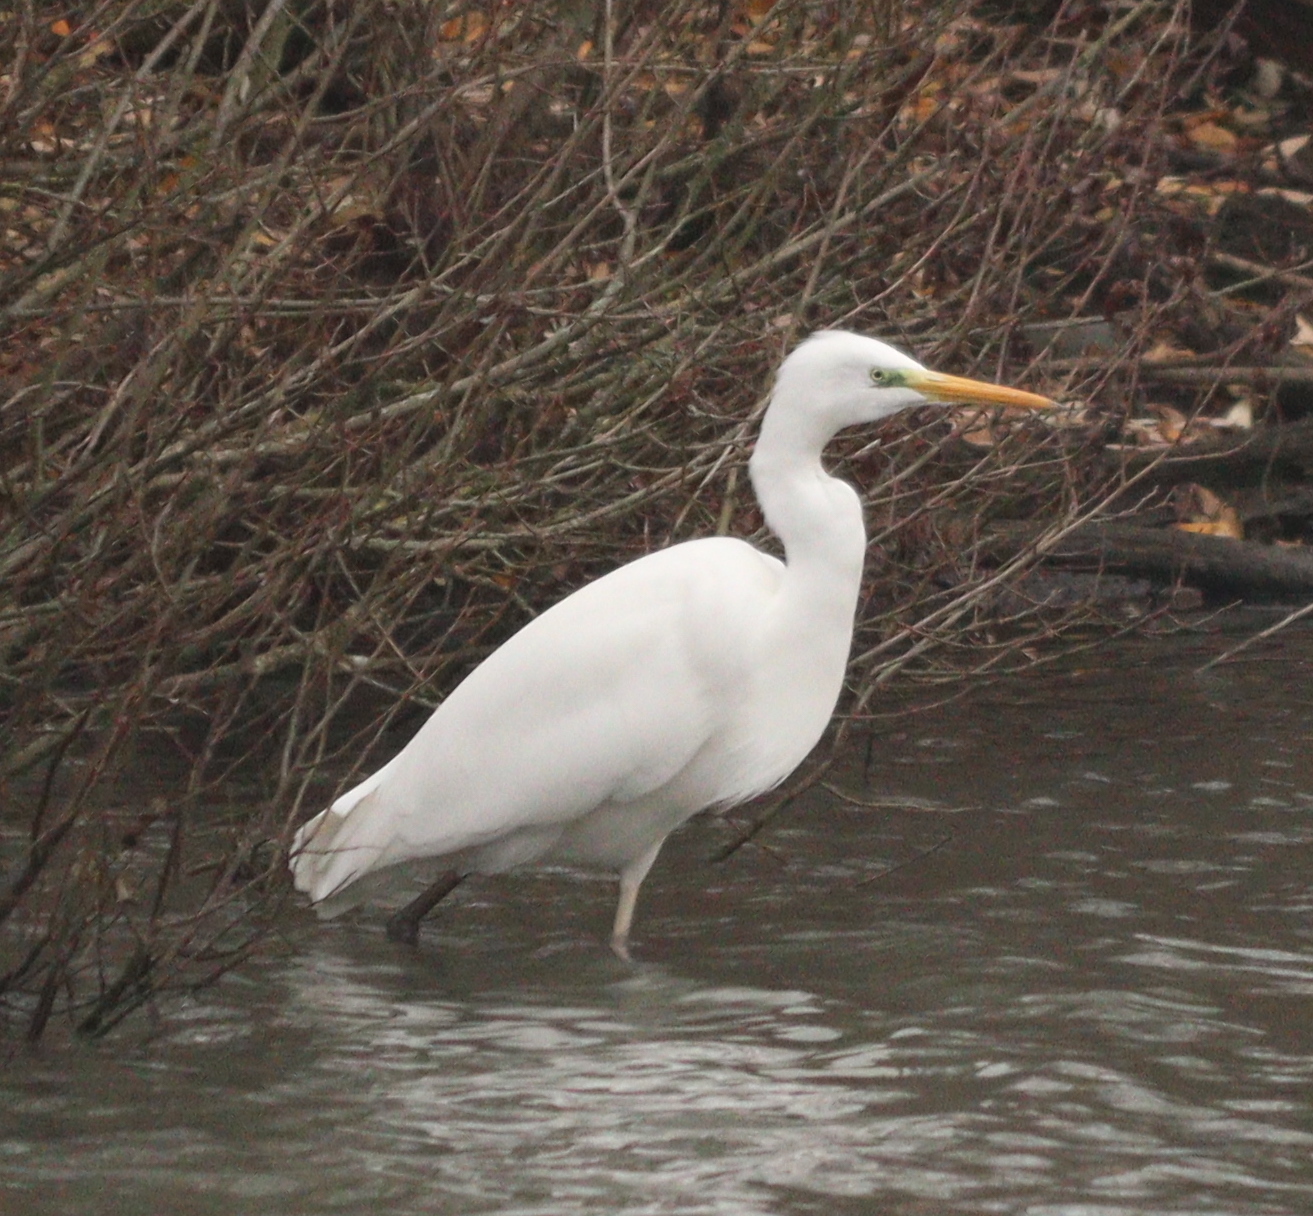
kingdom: Animalia
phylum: Chordata
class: Aves
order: Pelecaniformes
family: Ardeidae
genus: Ardea
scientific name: Ardea alba
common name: Great egret
